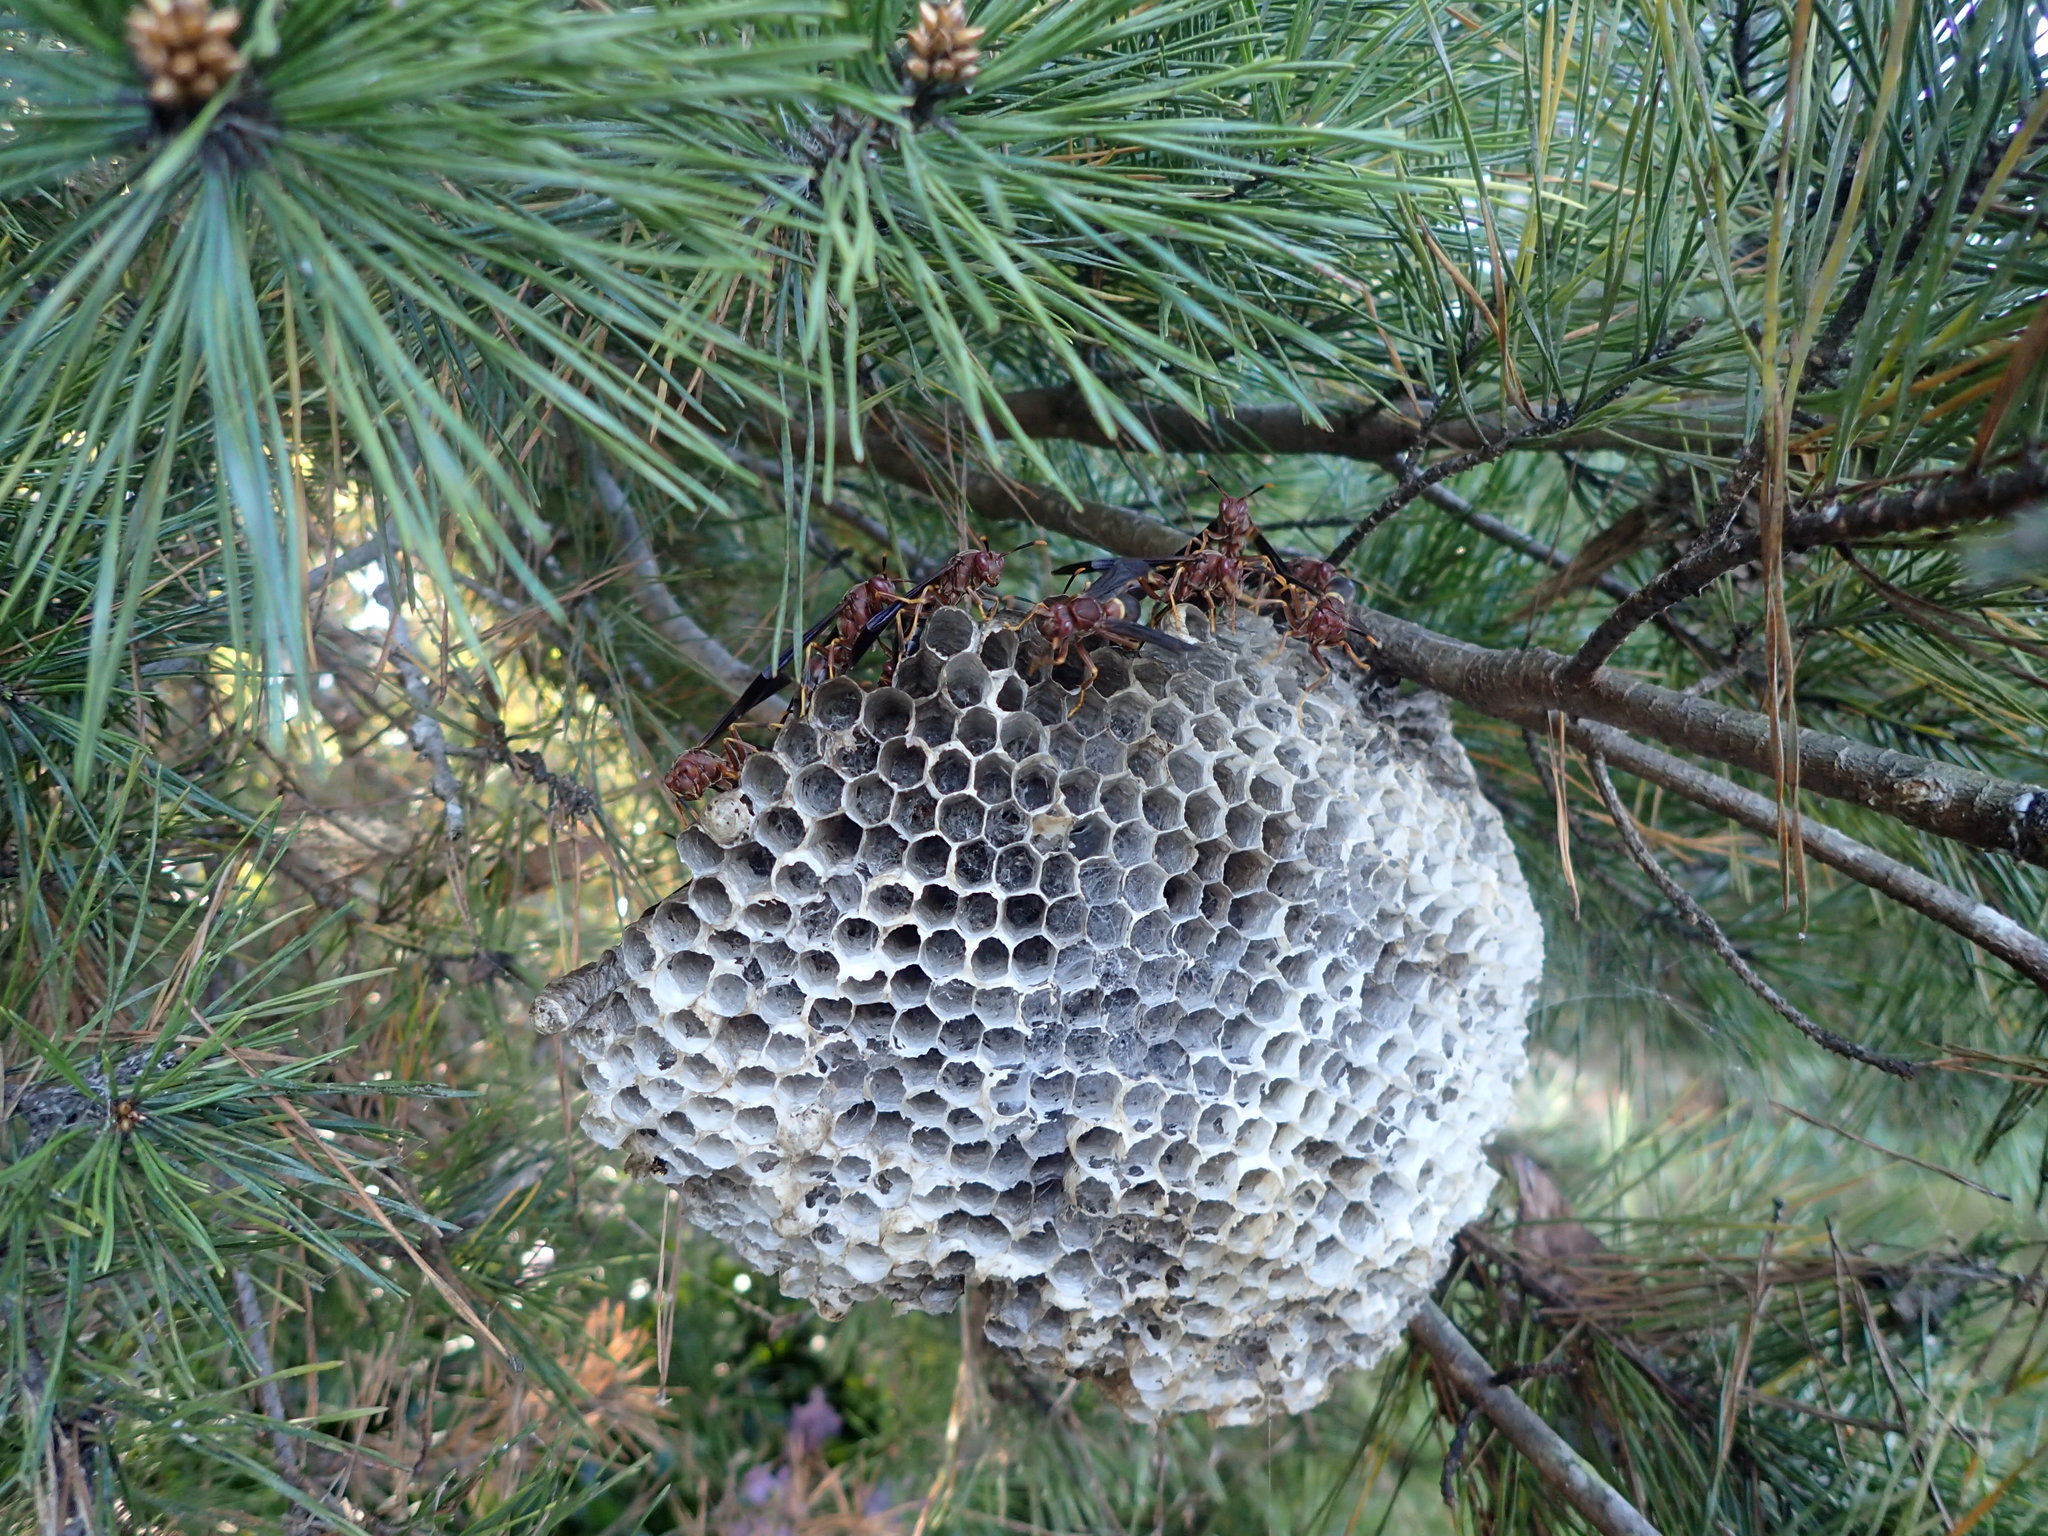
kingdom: Animalia
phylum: Arthropoda
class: Insecta
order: Hymenoptera
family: Eumenidae
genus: Polistes
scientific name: Polistes annularis
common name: Ringed paper wasp
